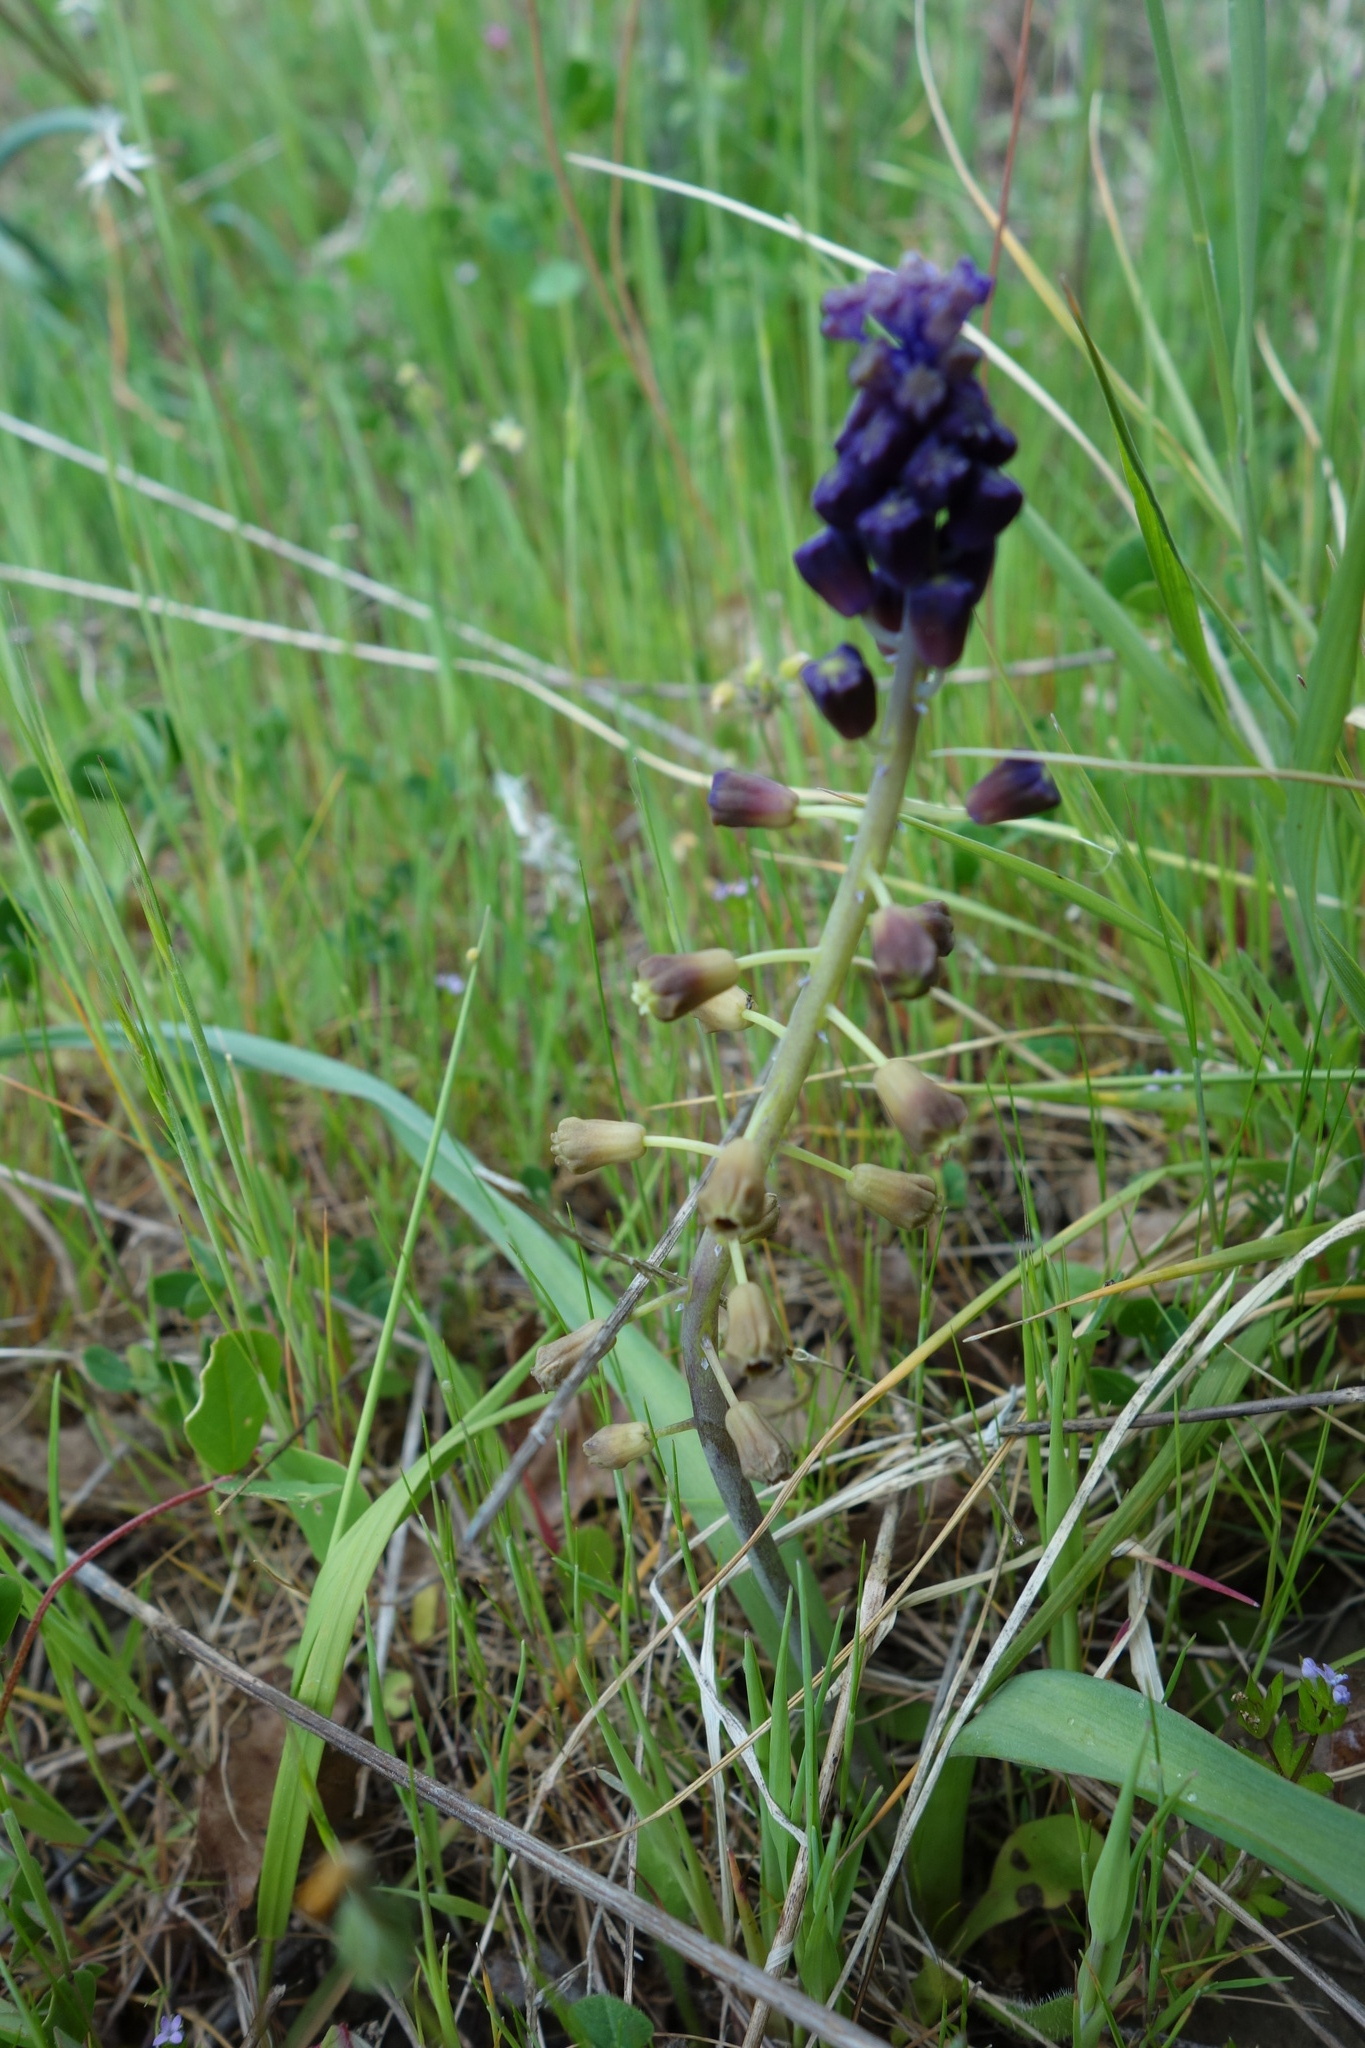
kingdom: Plantae
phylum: Tracheophyta
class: Liliopsida
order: Asparagales
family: Asparagaceae
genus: Muscari
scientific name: Muscari comosum
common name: Tassel hyacinth
